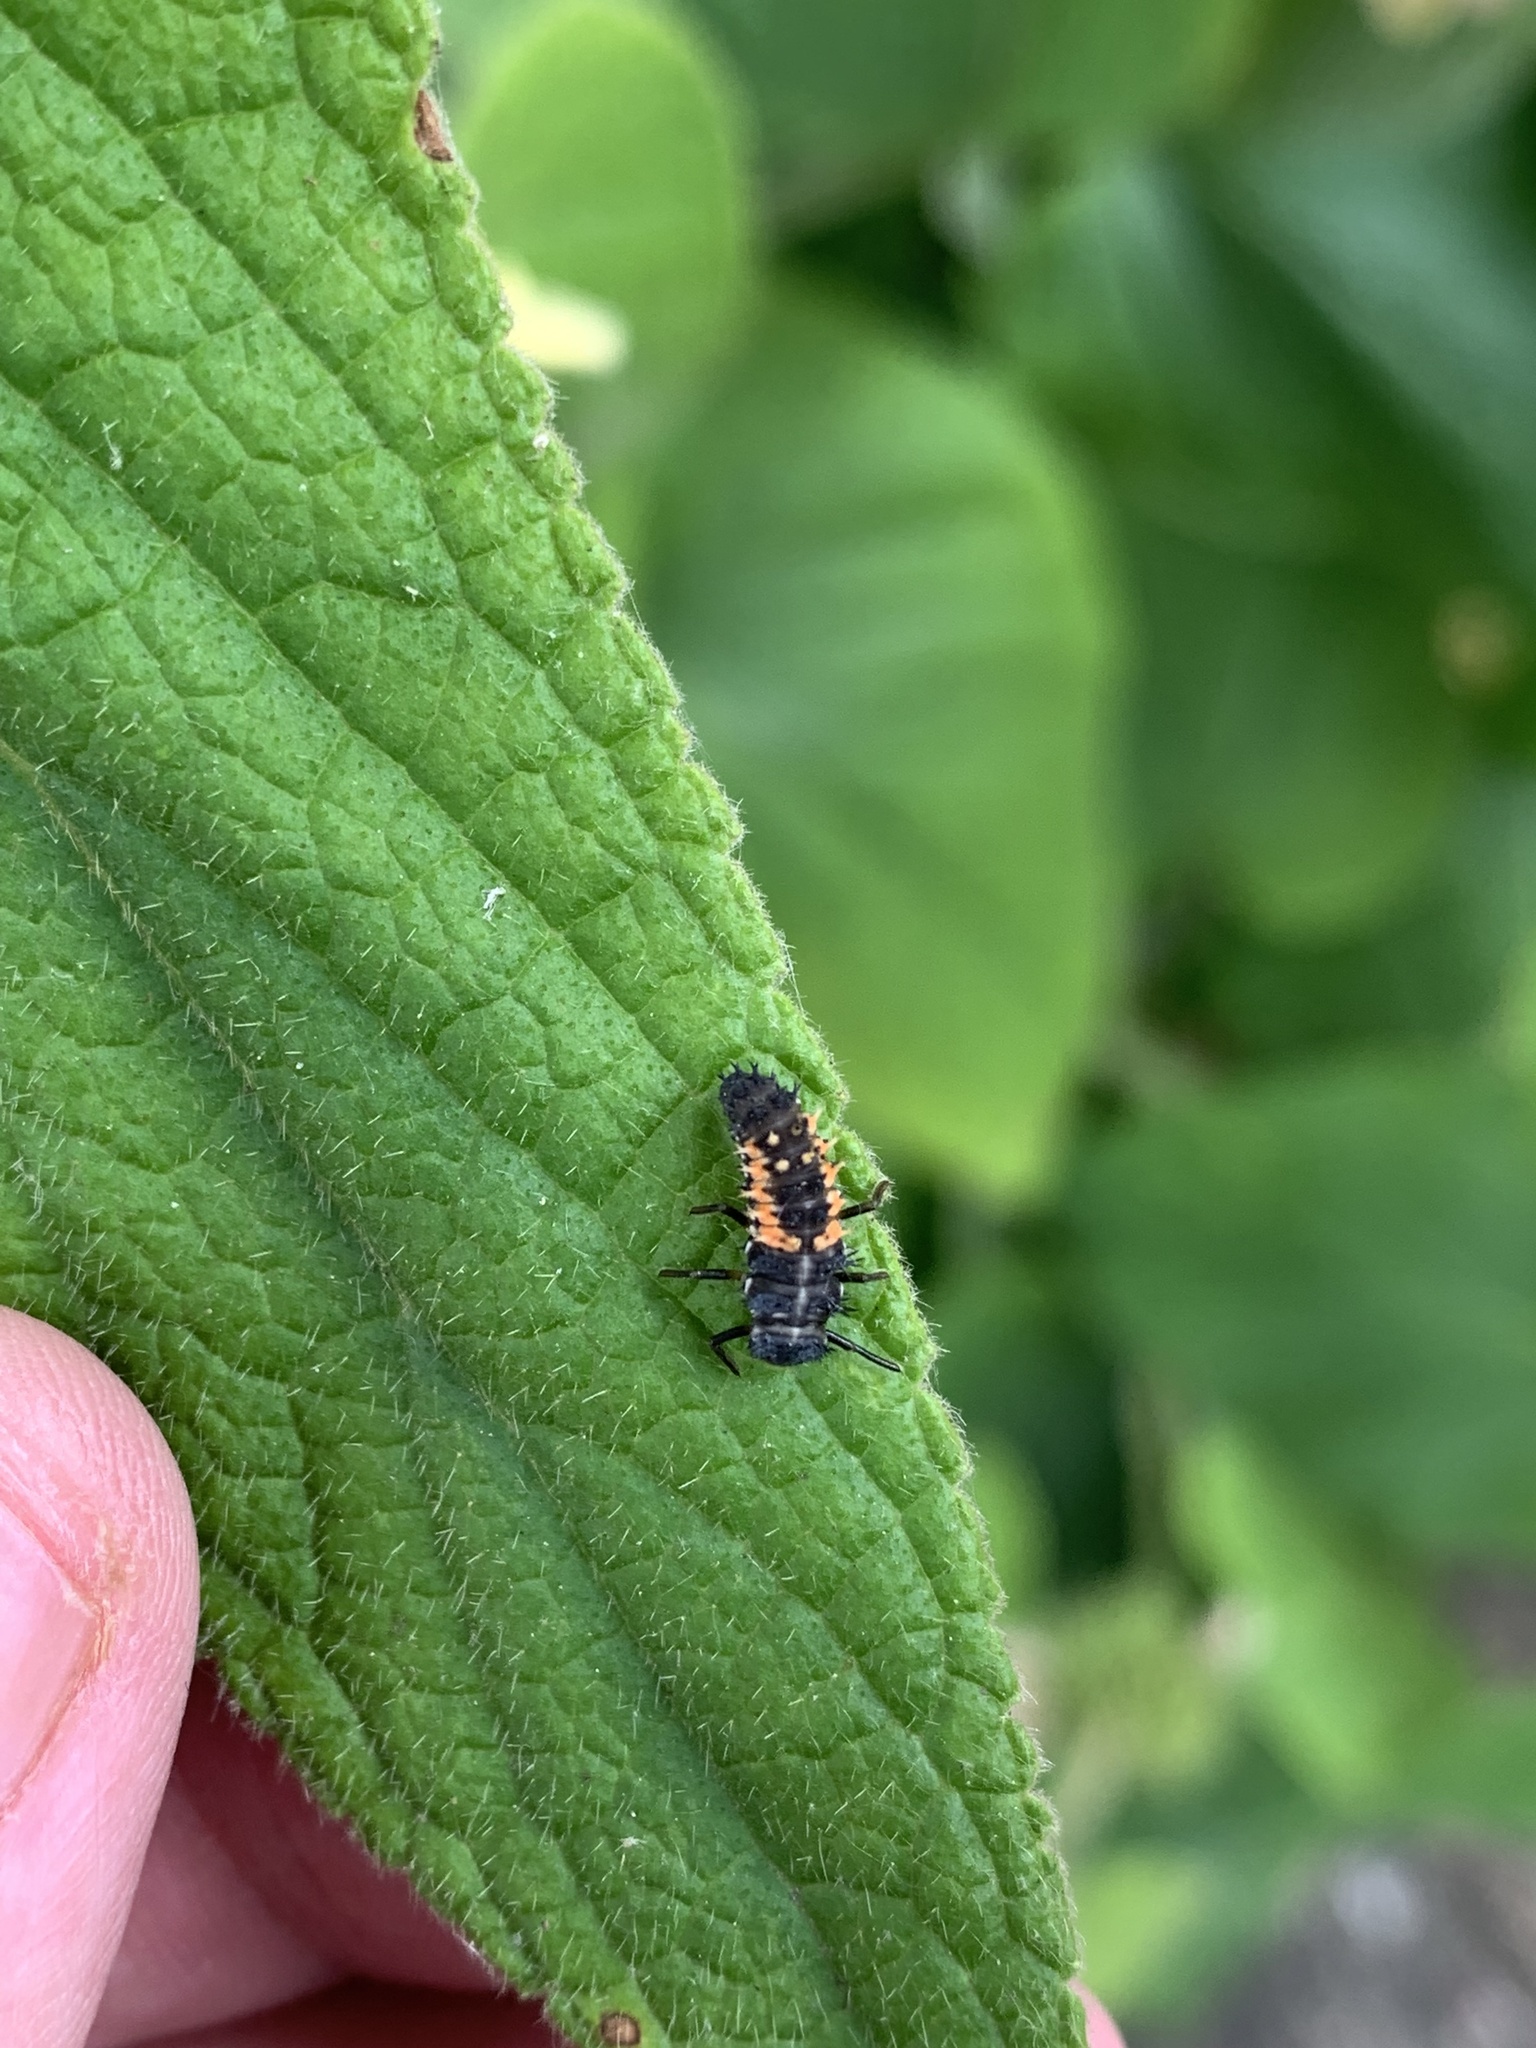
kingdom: Animalia
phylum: Arthropoda
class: Insecta
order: Coleoptera
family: Coccinellidae
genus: Harmonia
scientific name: Harmonia axyridis
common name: Harlequin ladybird
